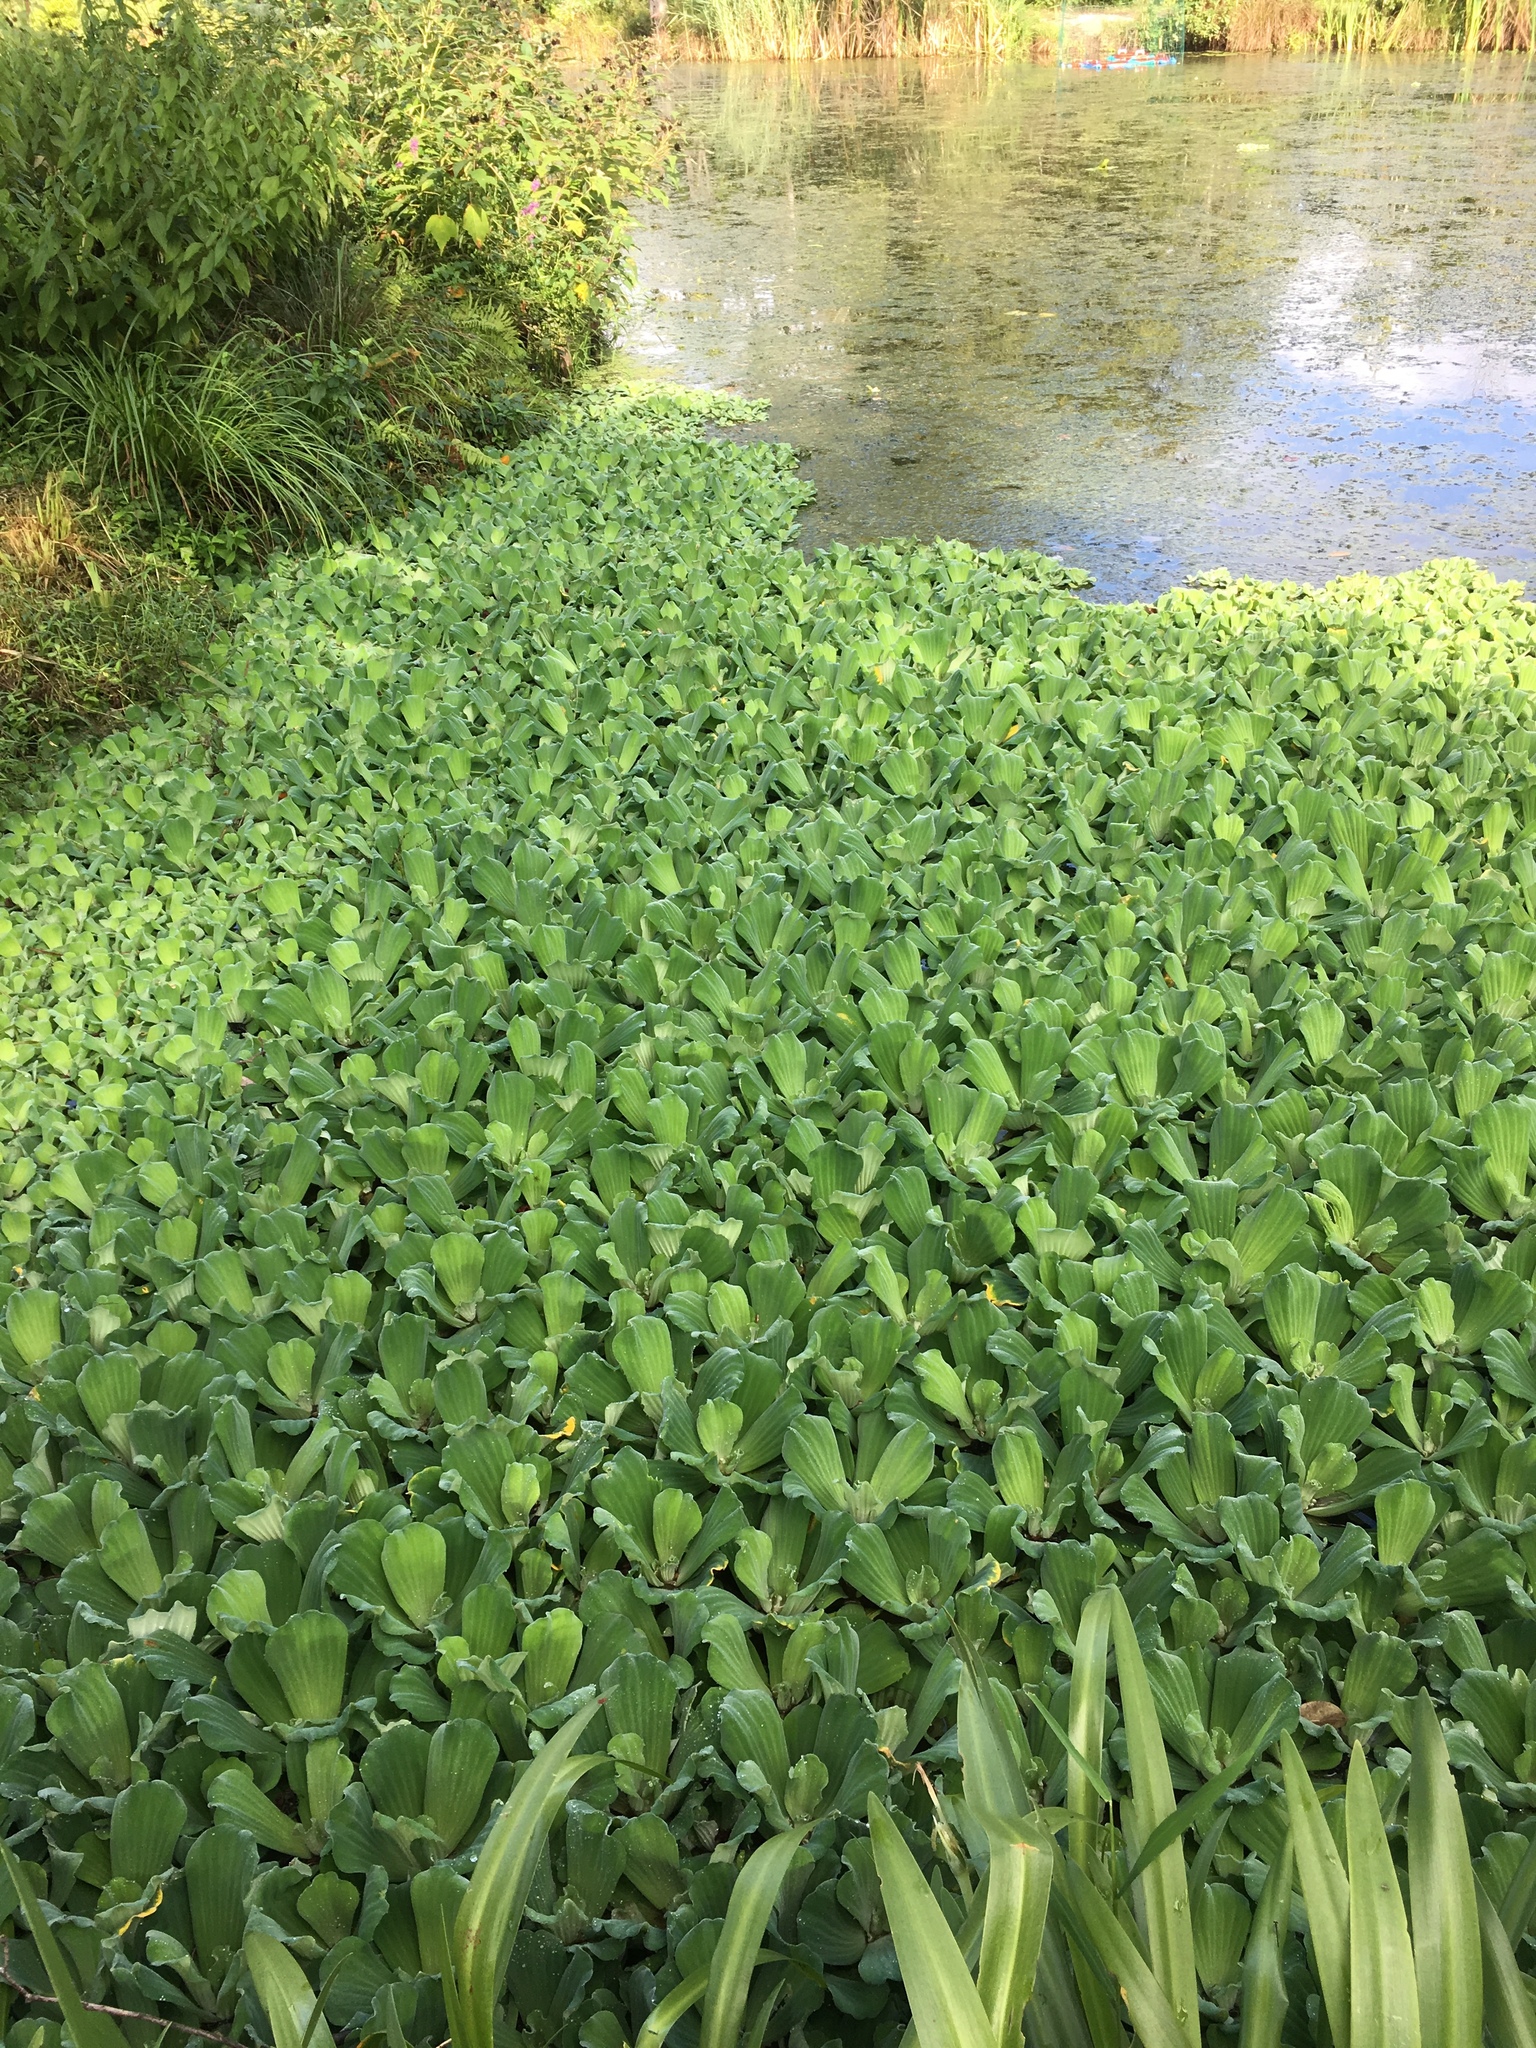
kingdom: Plantae
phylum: Tracheophyta
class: Liliopsida
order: Alismatales
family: Araceae
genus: Pistia
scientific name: Pistia stratiotes
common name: Water lettuce
